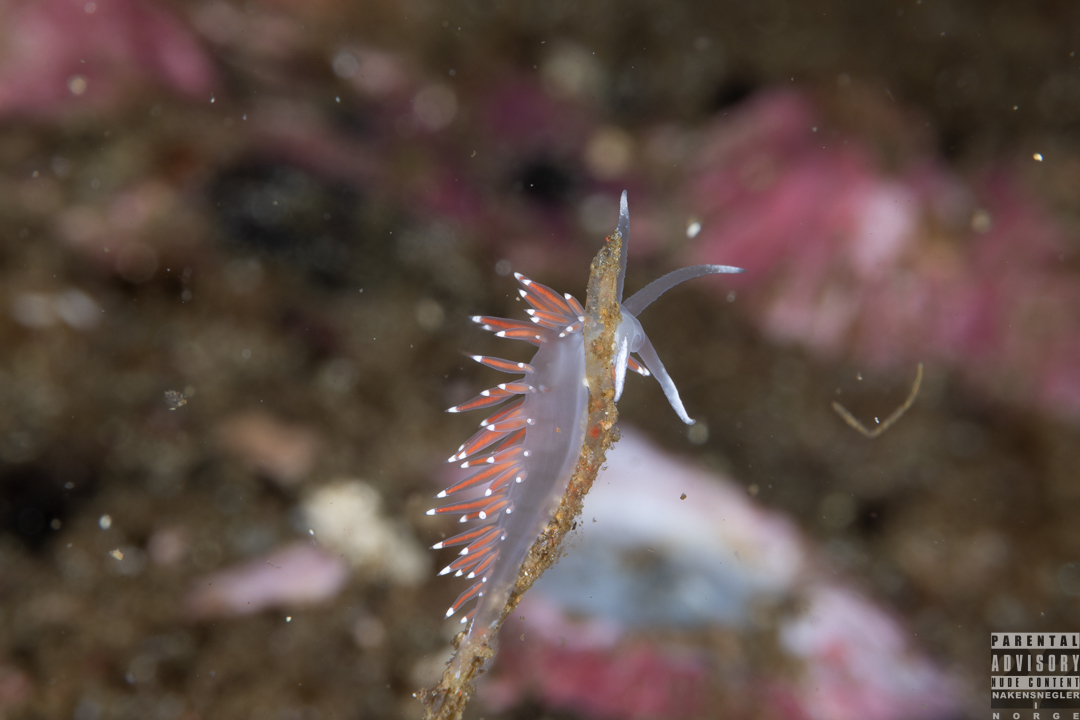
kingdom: Animalia
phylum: Mollusca
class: Gastropoda
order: Nudibranchia
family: Coryphellidae
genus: Coryphella
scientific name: Coryphella verrucosa
